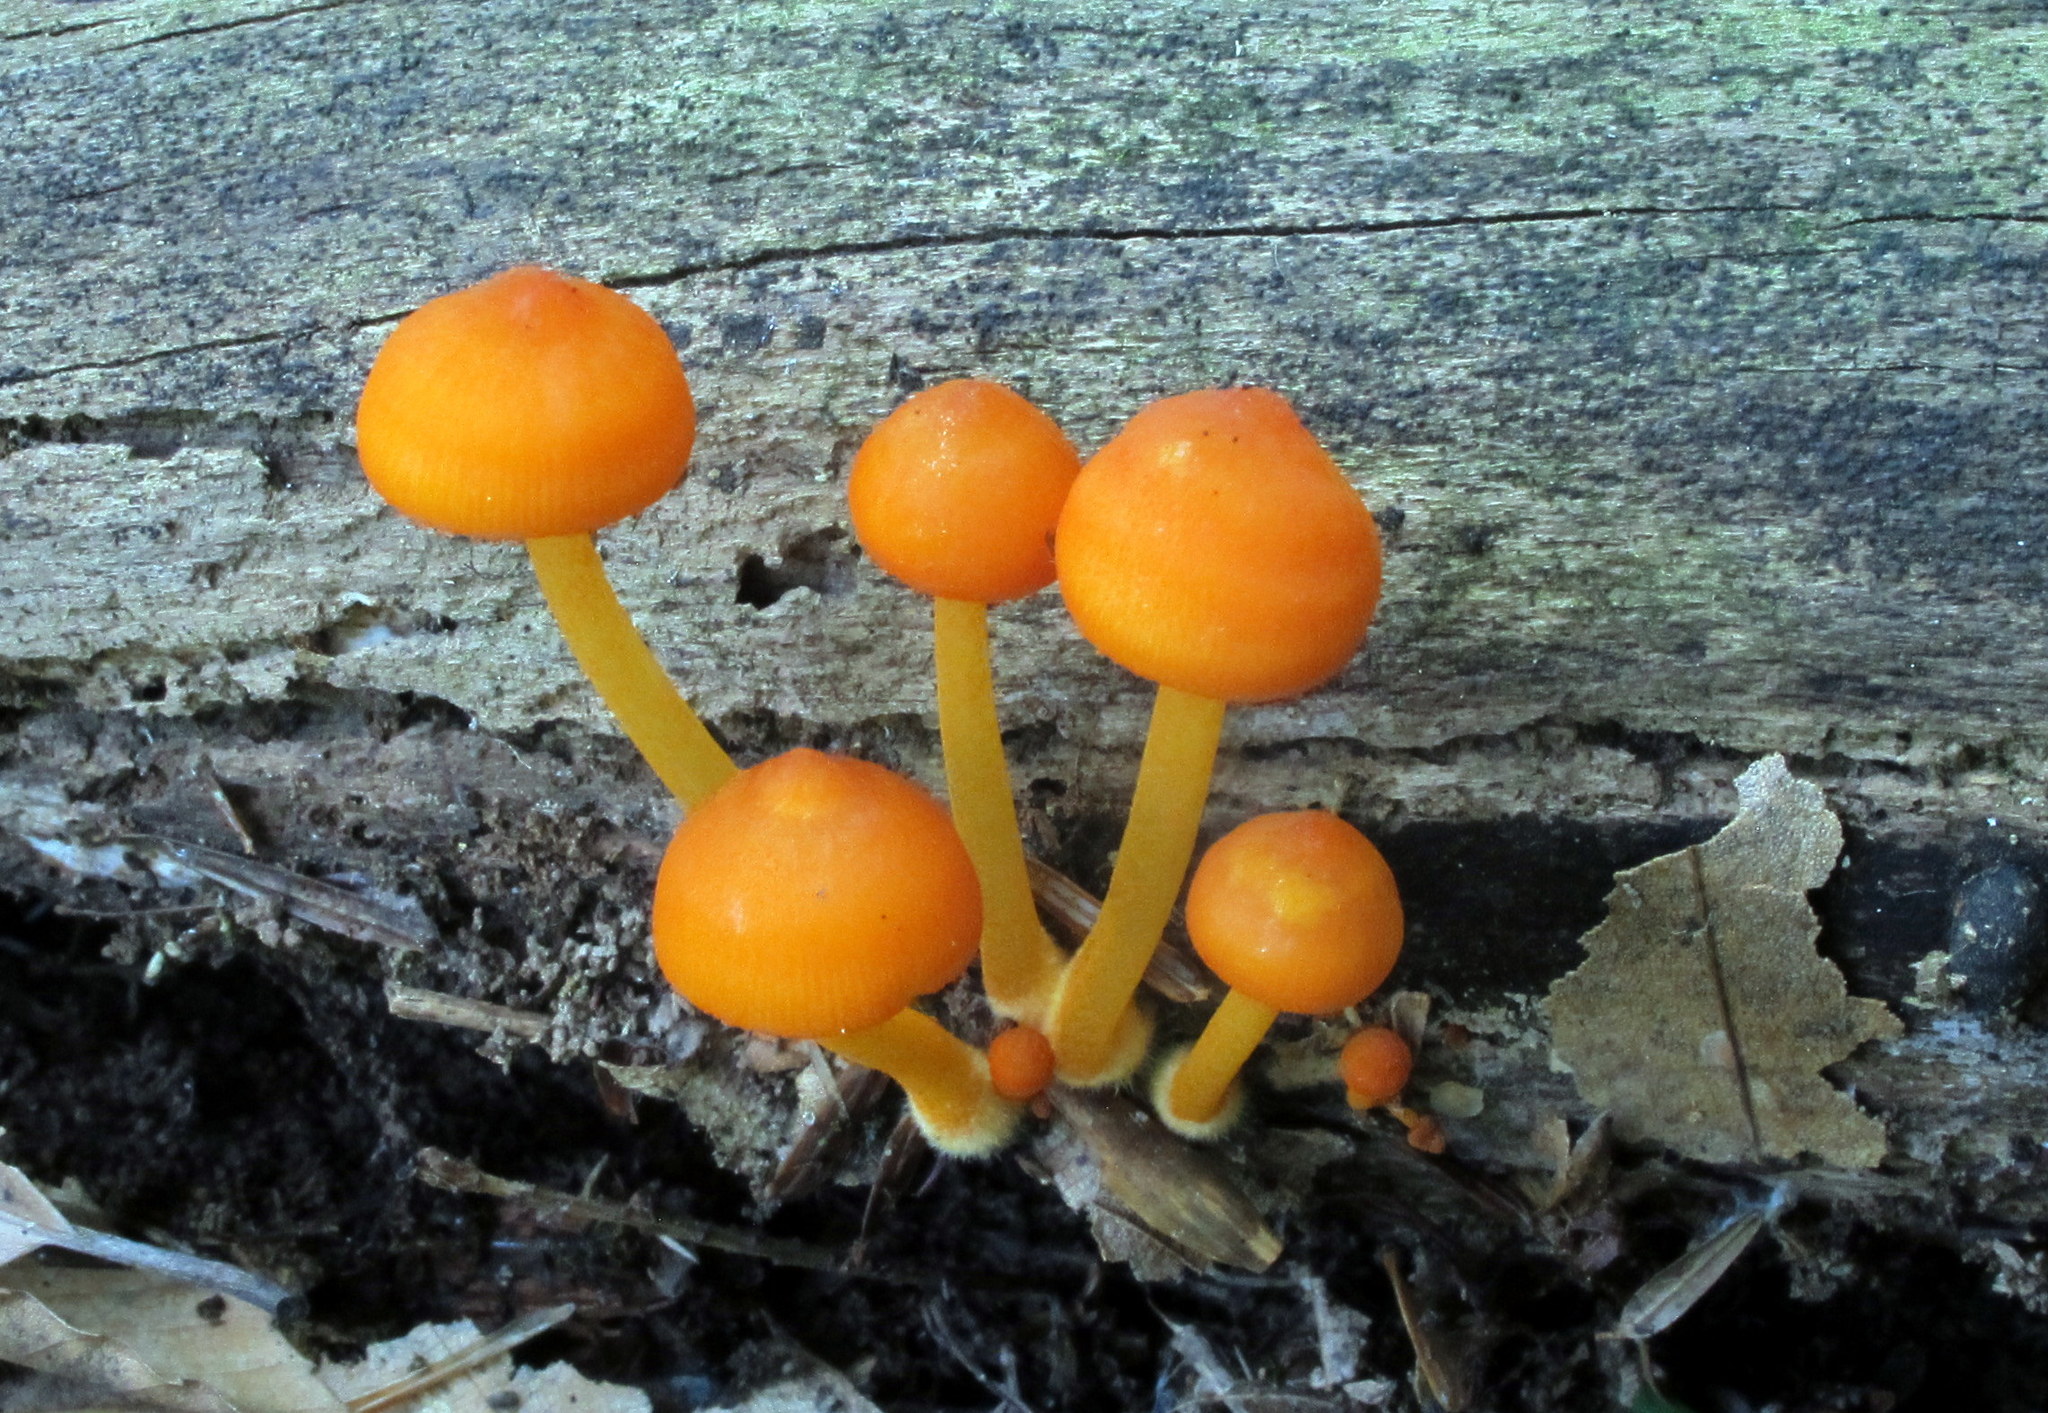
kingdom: Fungi
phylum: Basidiomycota
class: Agaricomycetes
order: Agaricales
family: Mycenaceae
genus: Mycena
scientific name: Mycena leaiana
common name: Orange mycena
